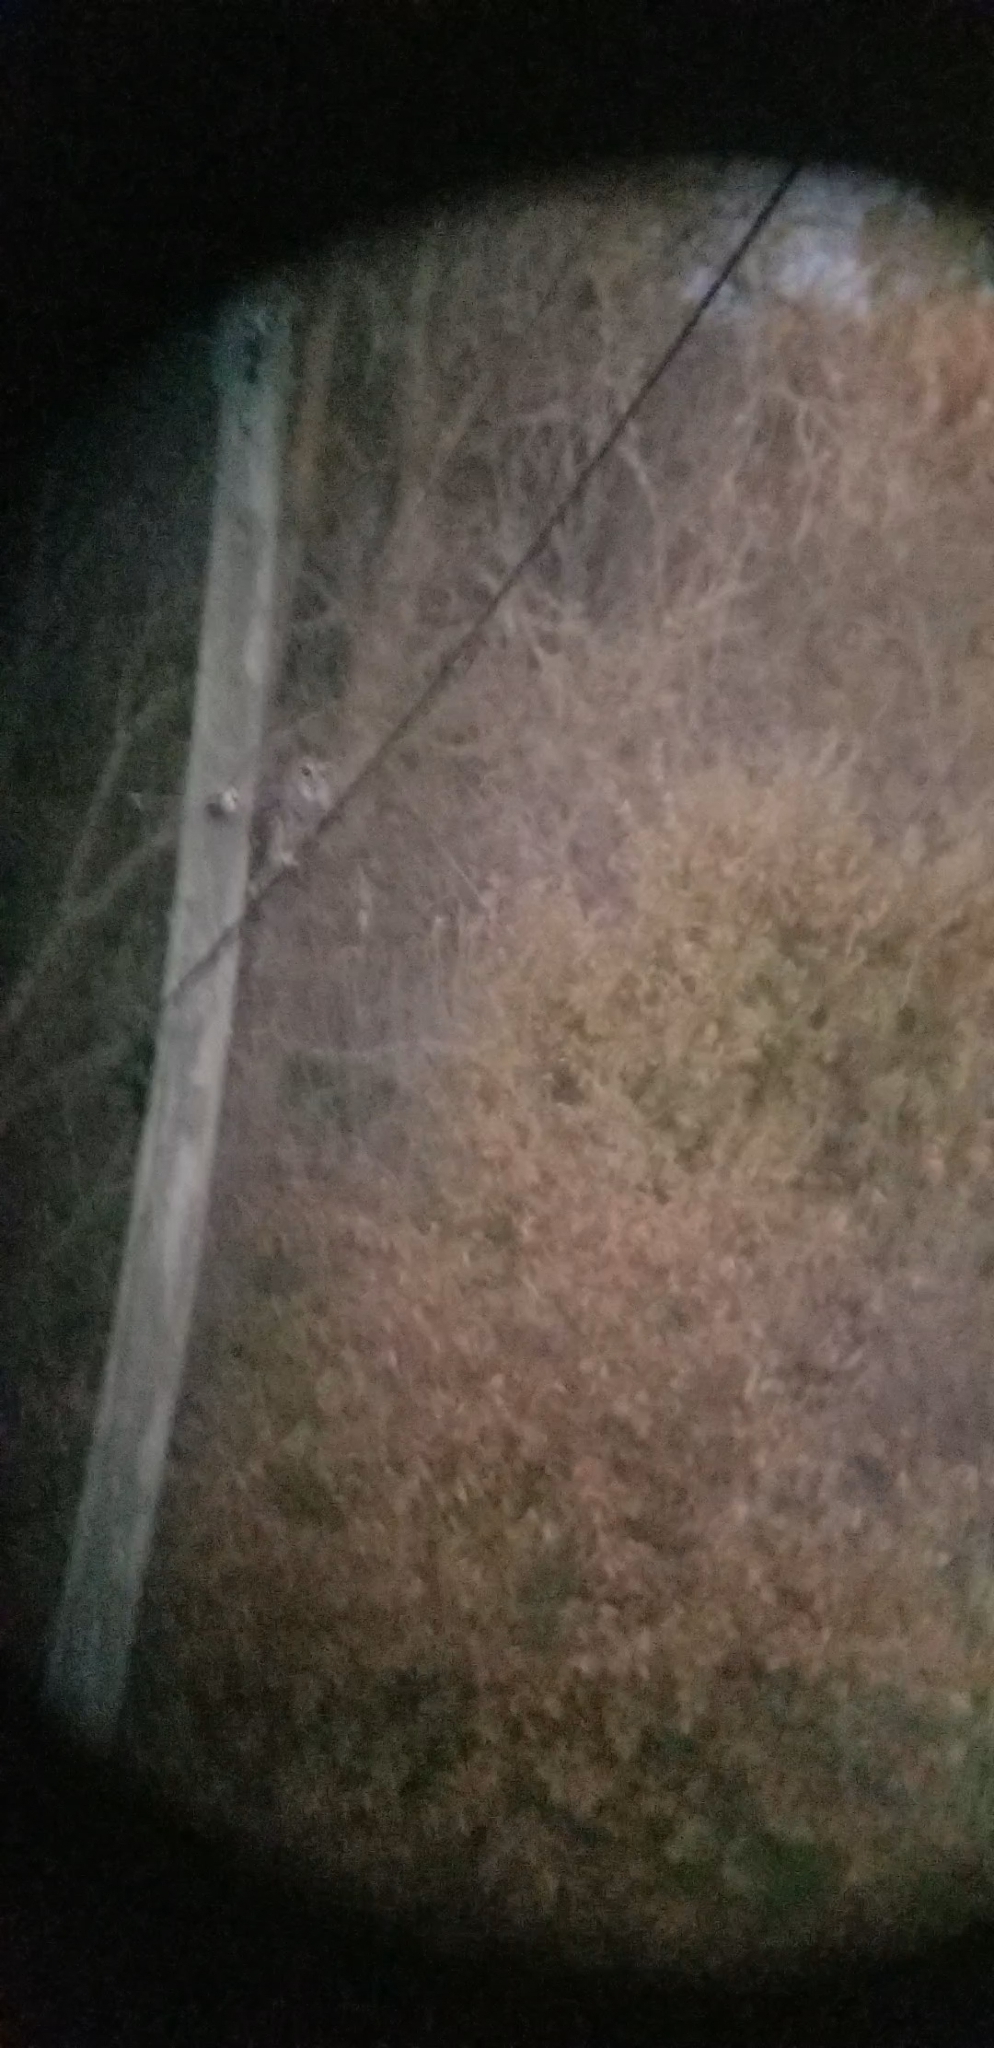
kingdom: Animalia
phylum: Chordata
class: Aves
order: Strigiformes
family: Strigidae
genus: Strix
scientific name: Strix varia
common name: Barred owl
